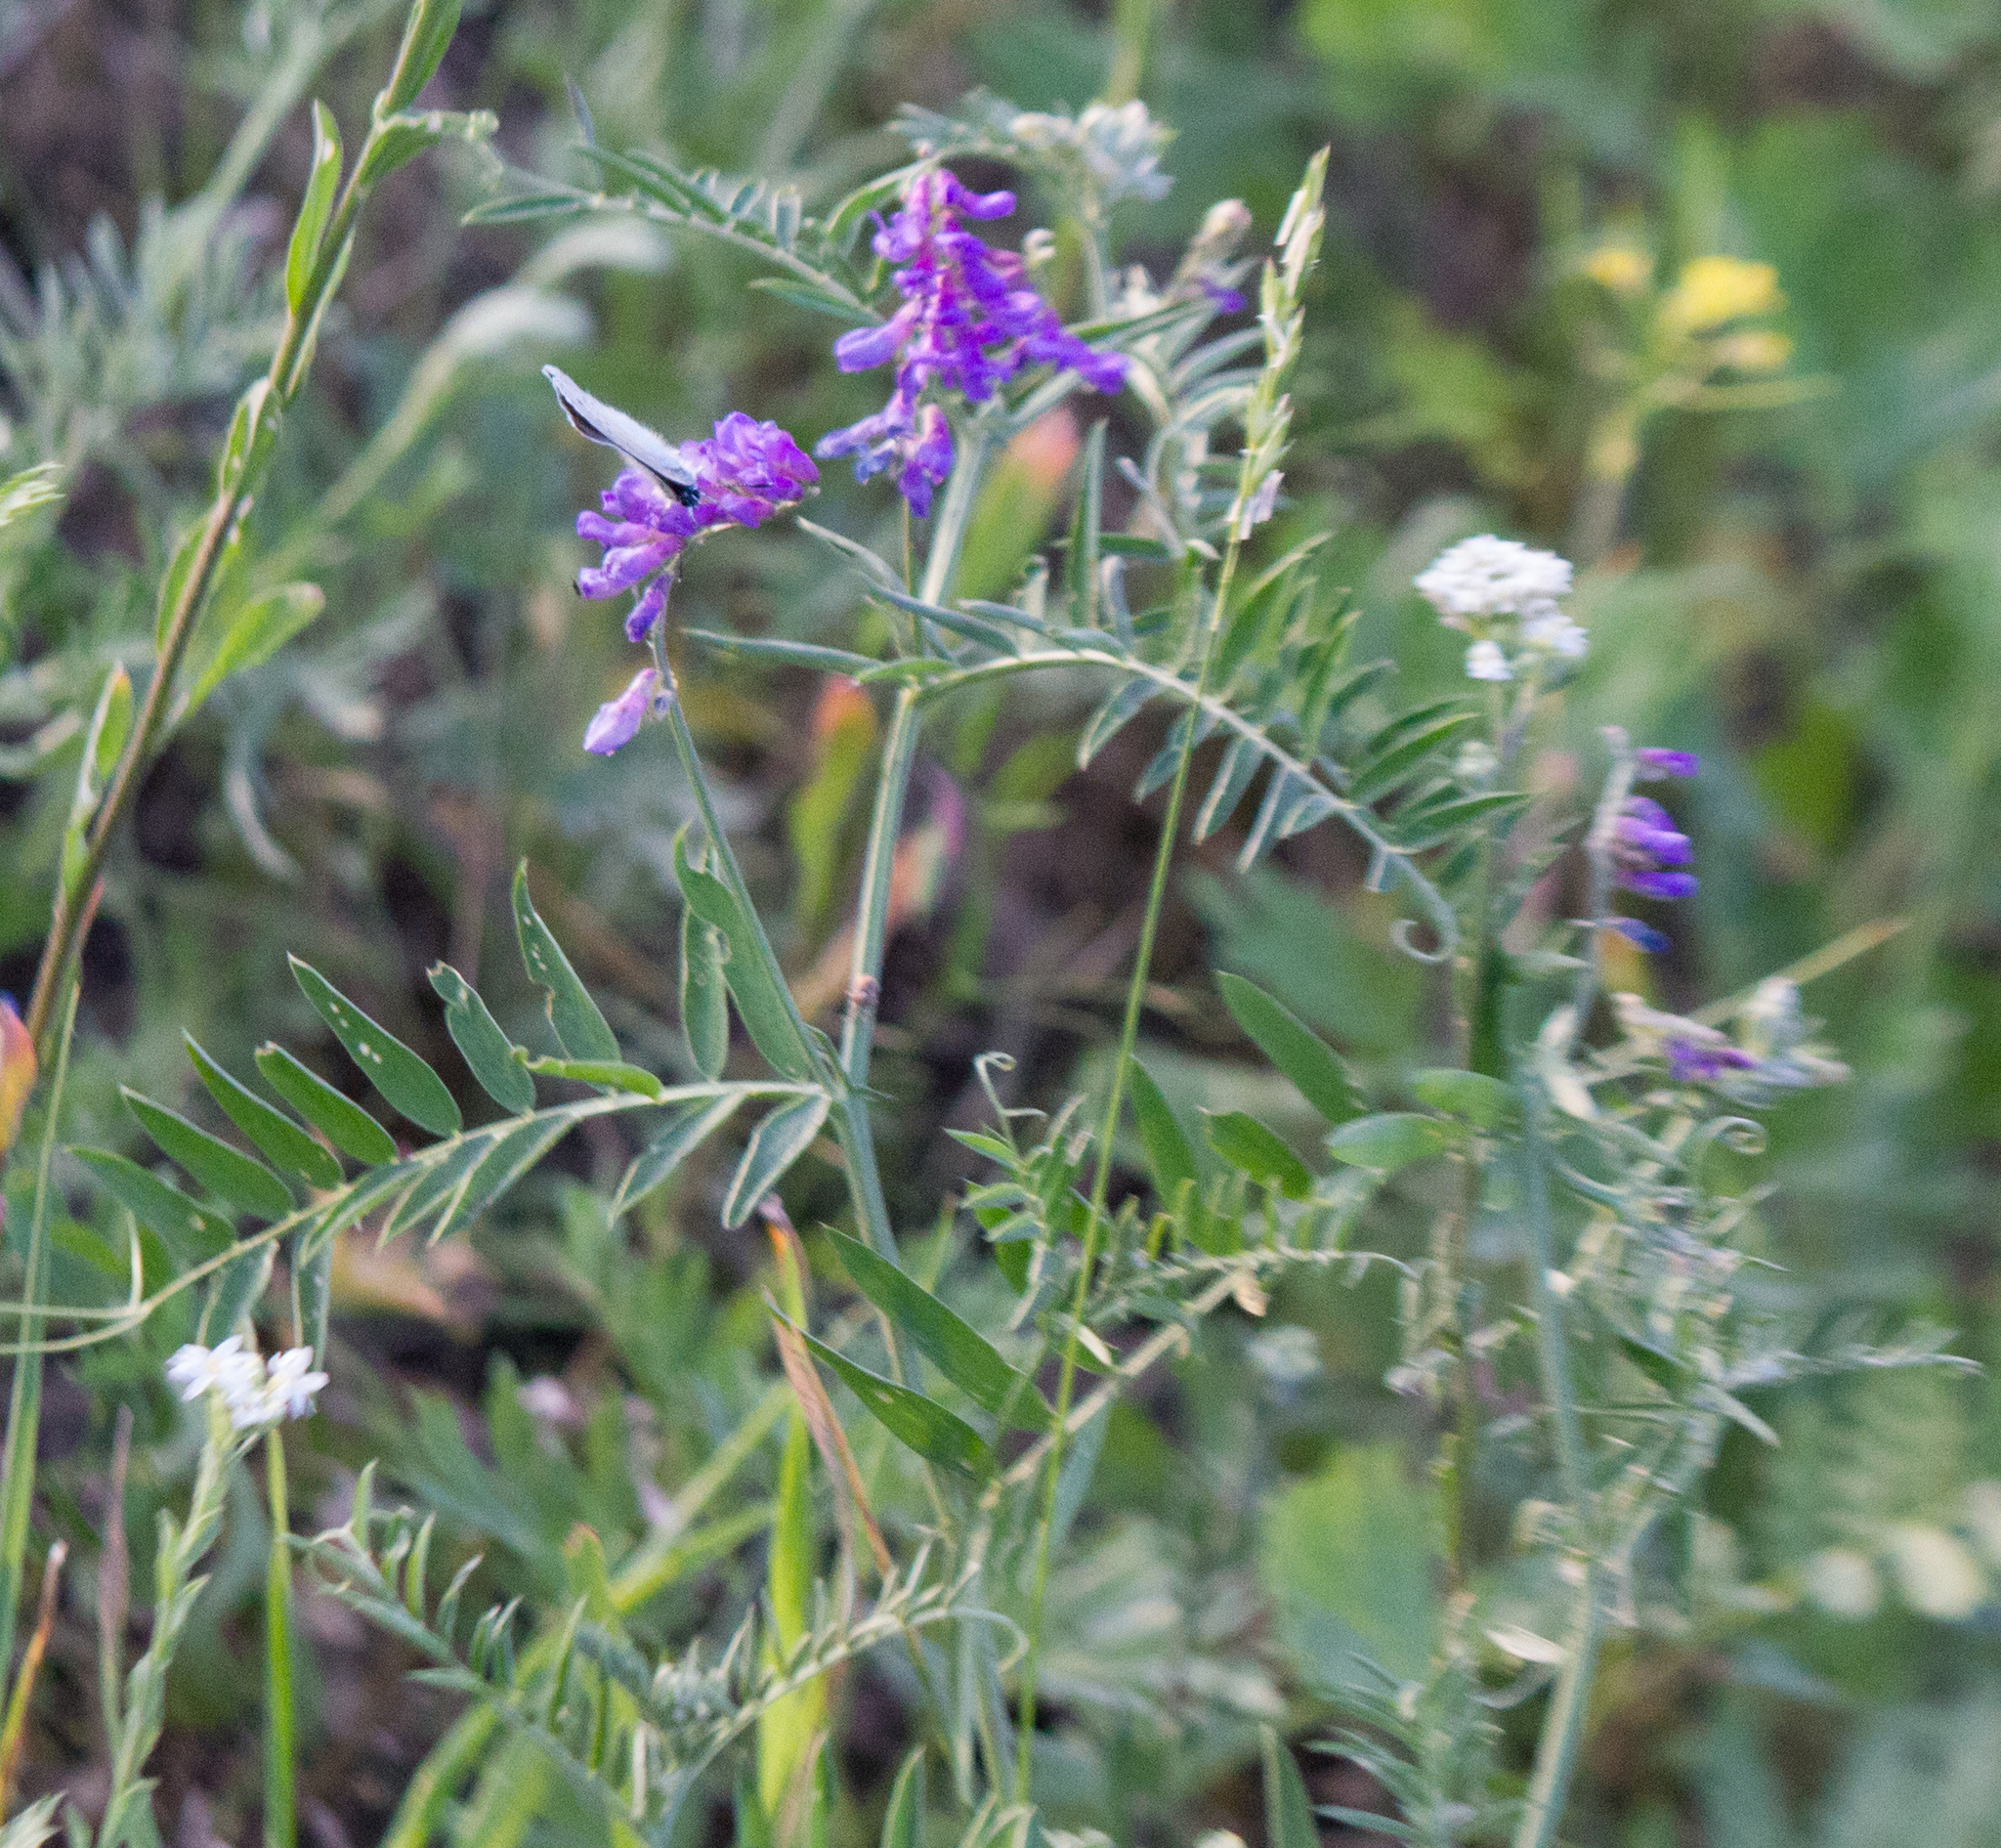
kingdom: Plantae
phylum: Tracheophyta
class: Magnoliopsida
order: Fabales
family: Fabaceae
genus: Vicia
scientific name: Vicia cracca
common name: Bird vetch
